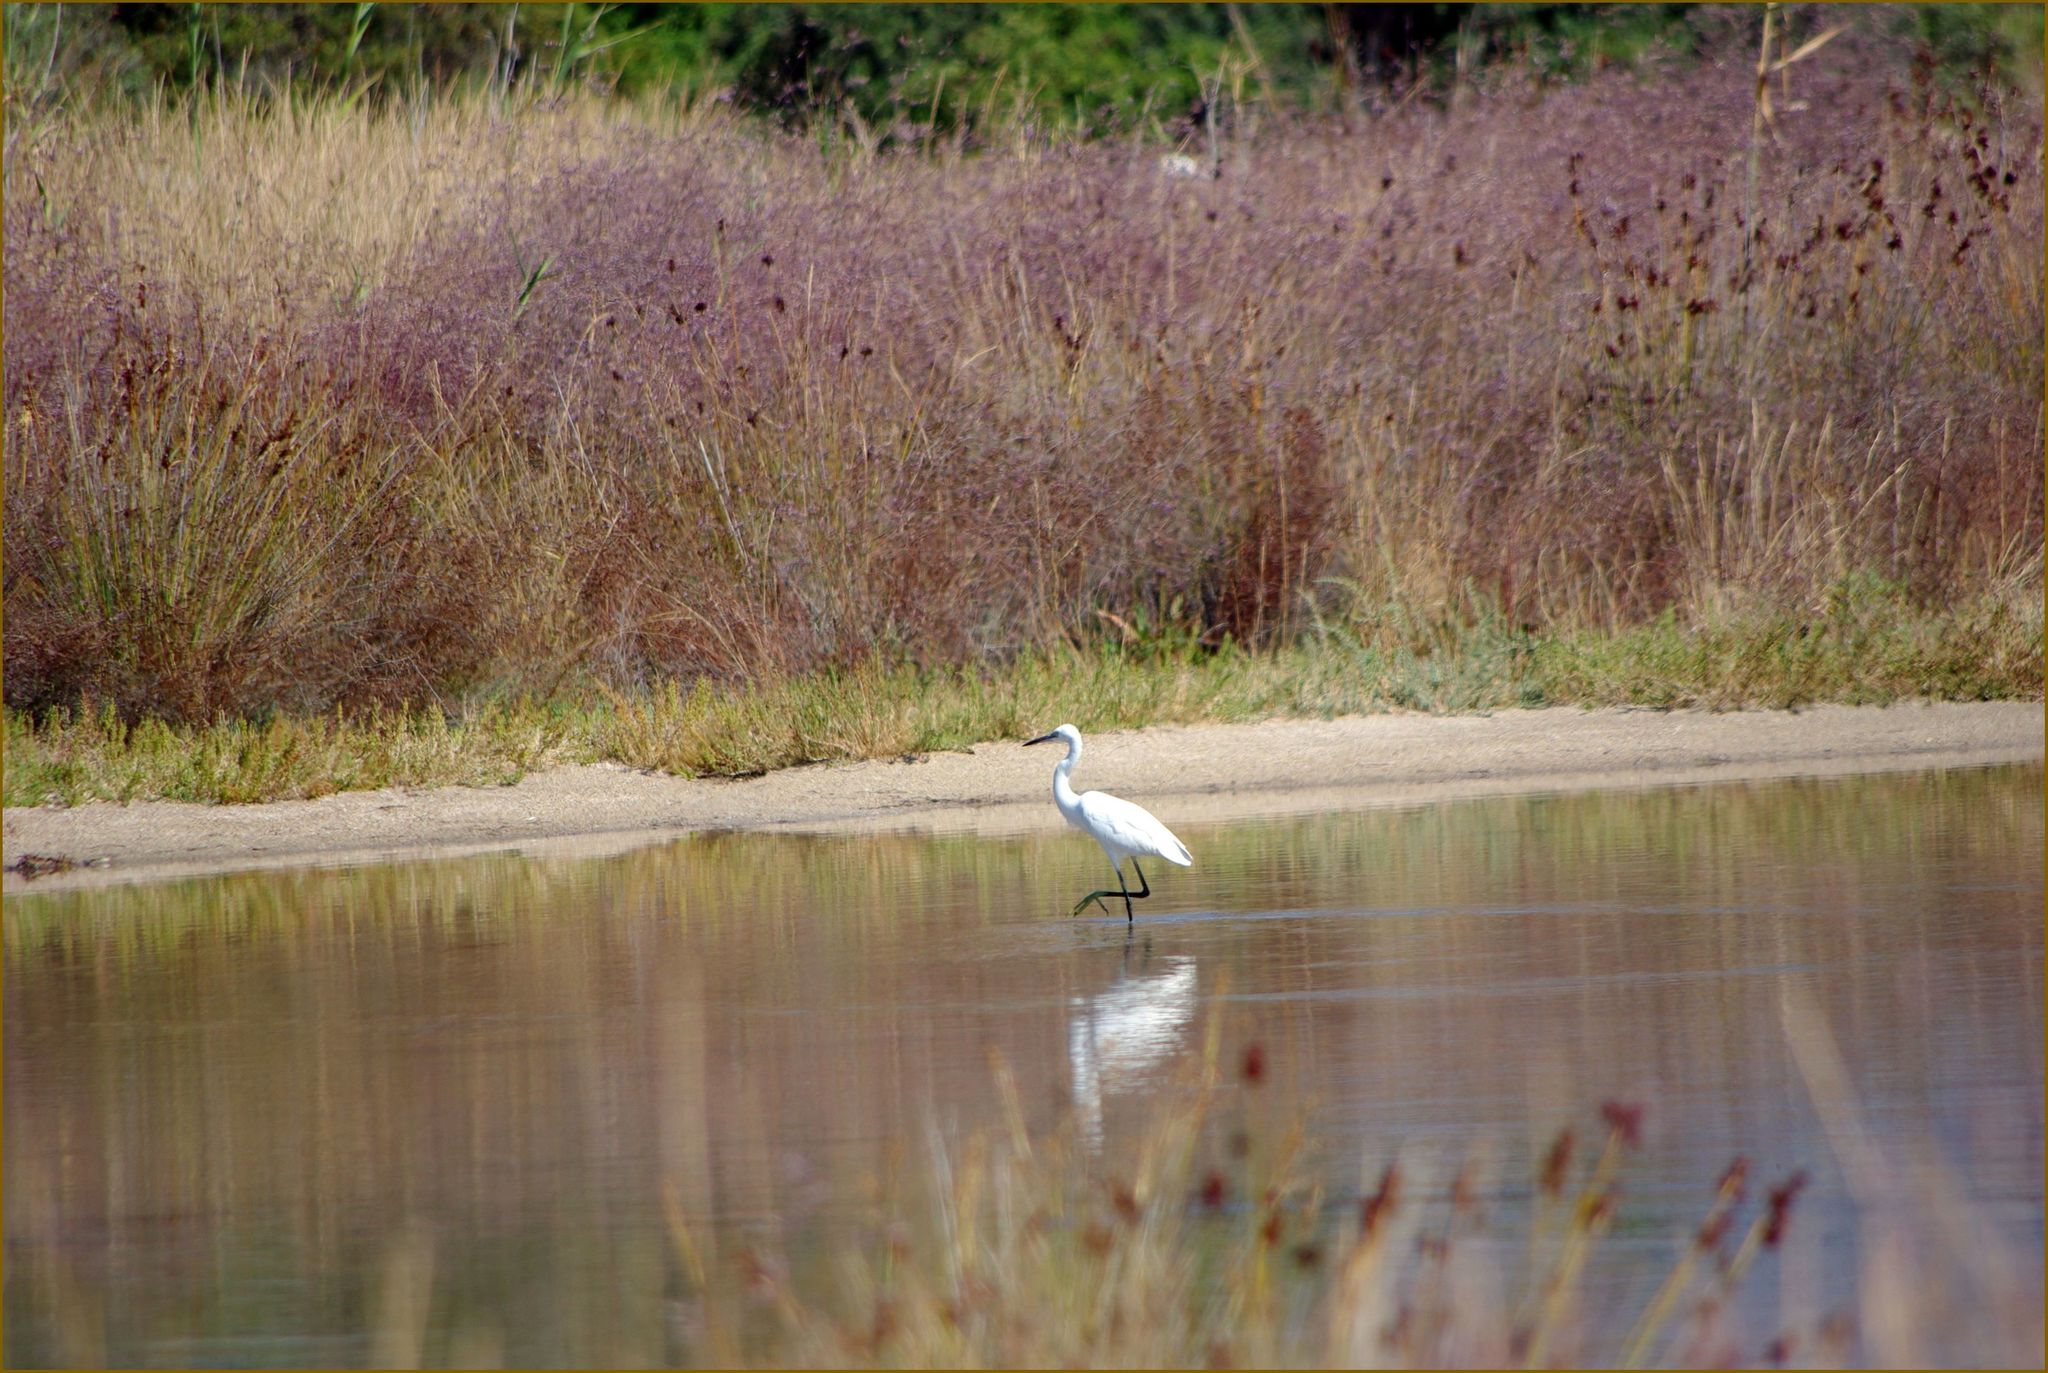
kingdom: Animalia
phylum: Chordata
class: Aves
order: Pelecaniformes
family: Ardeidae
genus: Egretta
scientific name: Egretta garzetta
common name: Little egret
